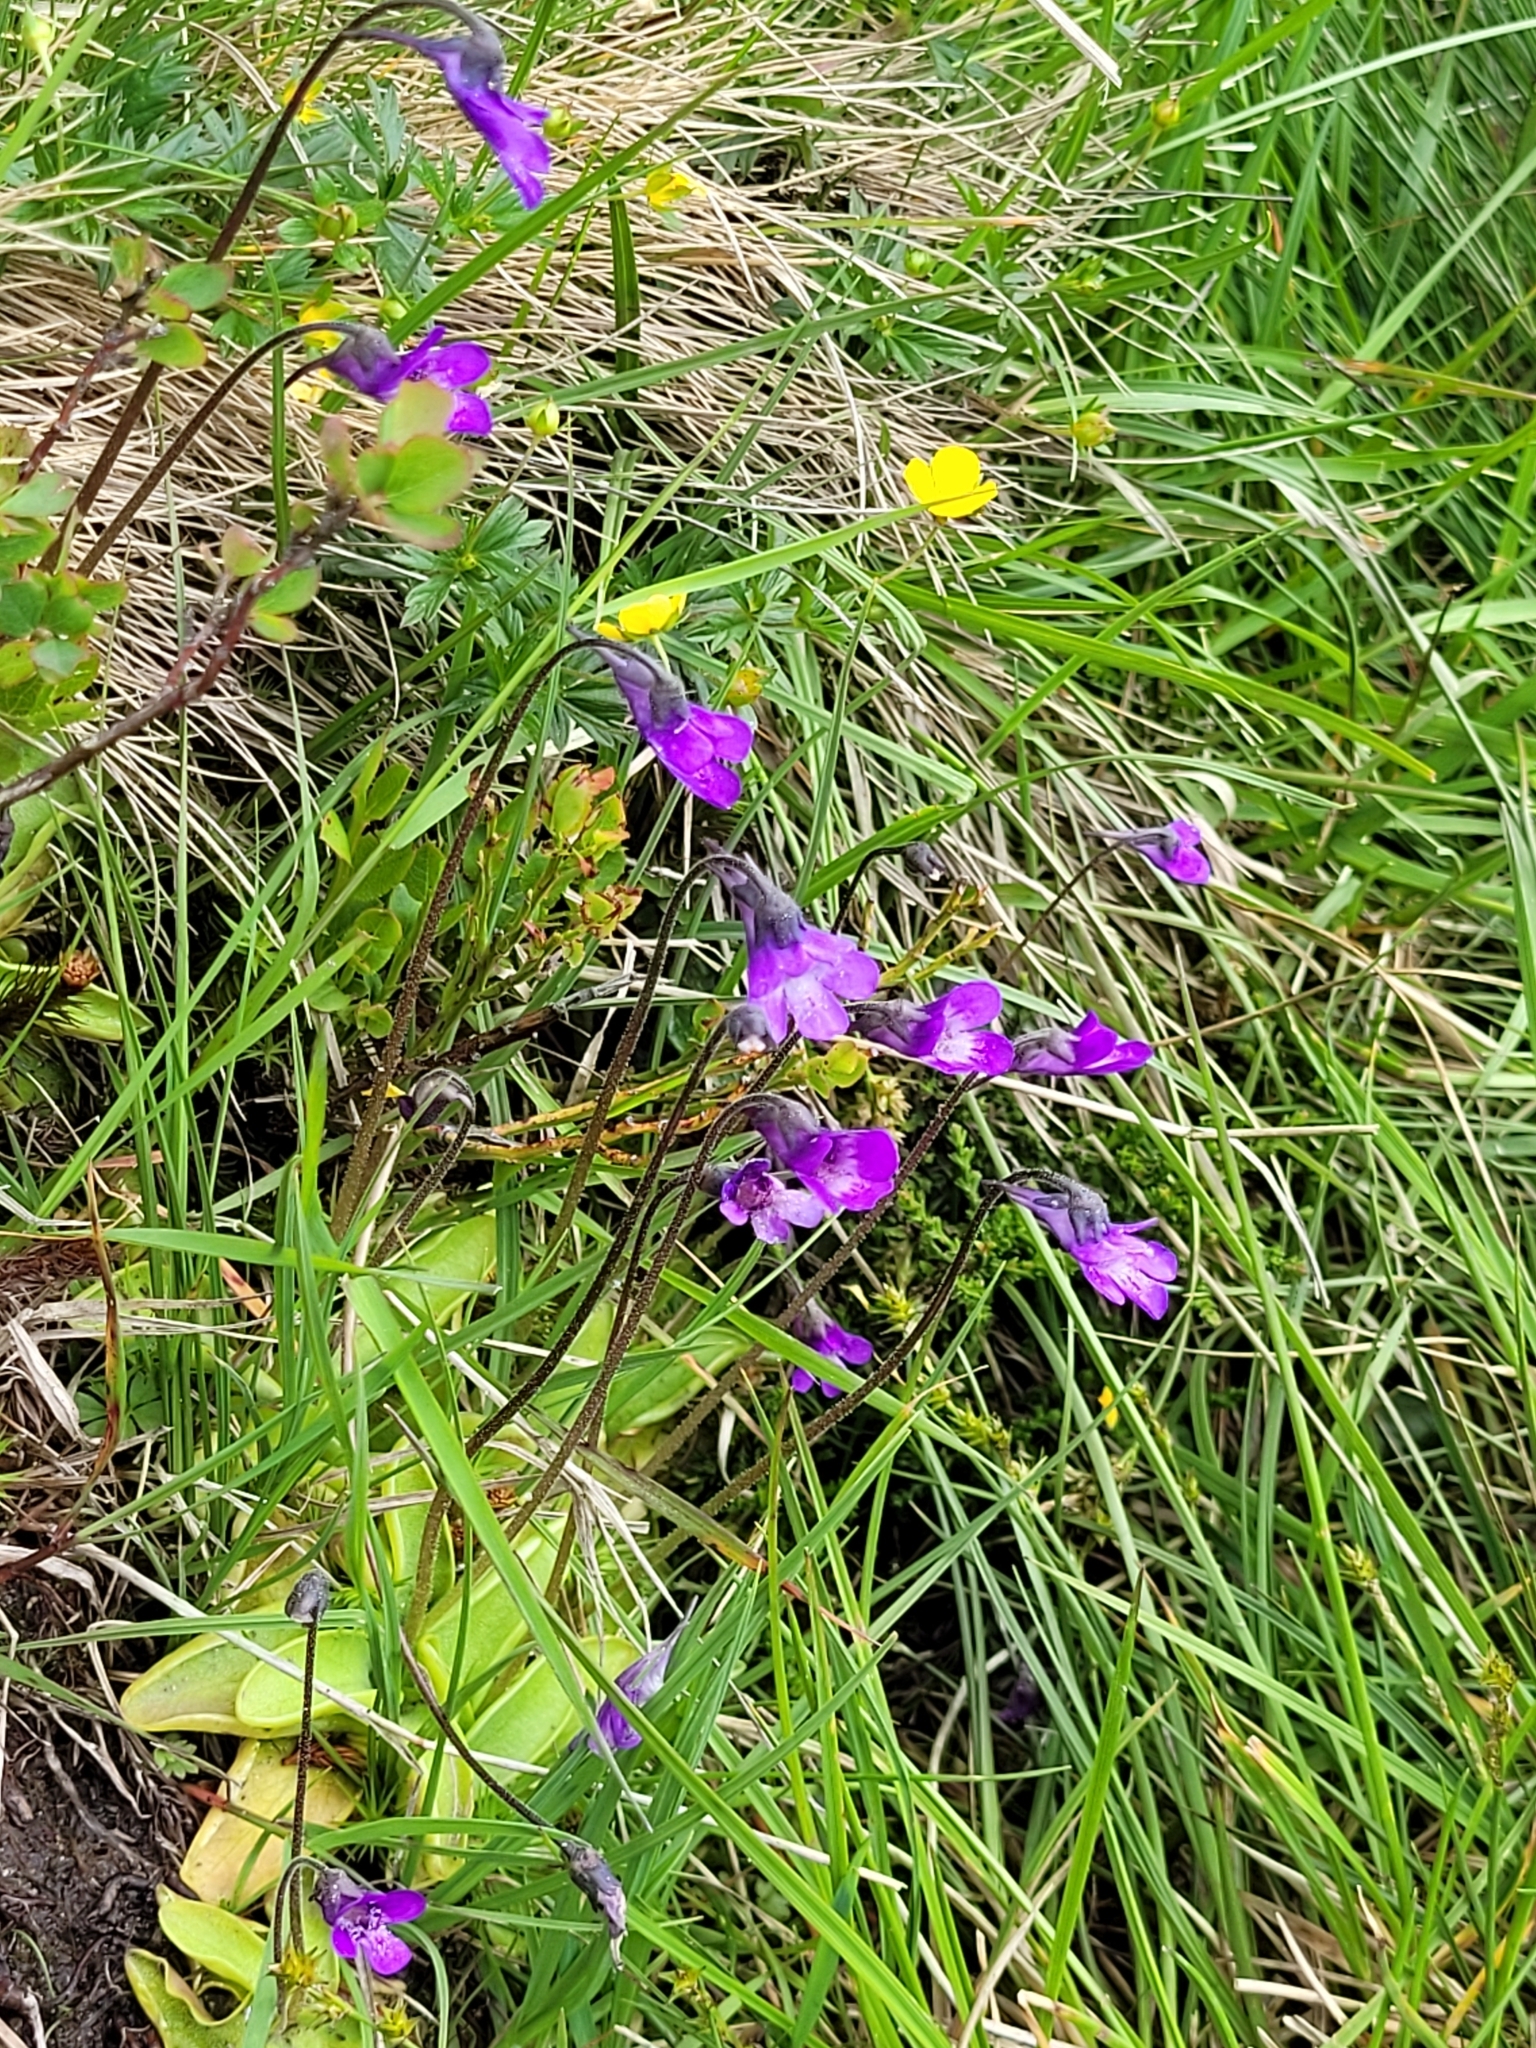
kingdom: Plantae
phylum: Tracheophyta
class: Magnoliopsida
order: Lamiales
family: Lentibulariaceae
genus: Pinguicula
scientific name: Pinguicula vulgaris
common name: Common butterwort
